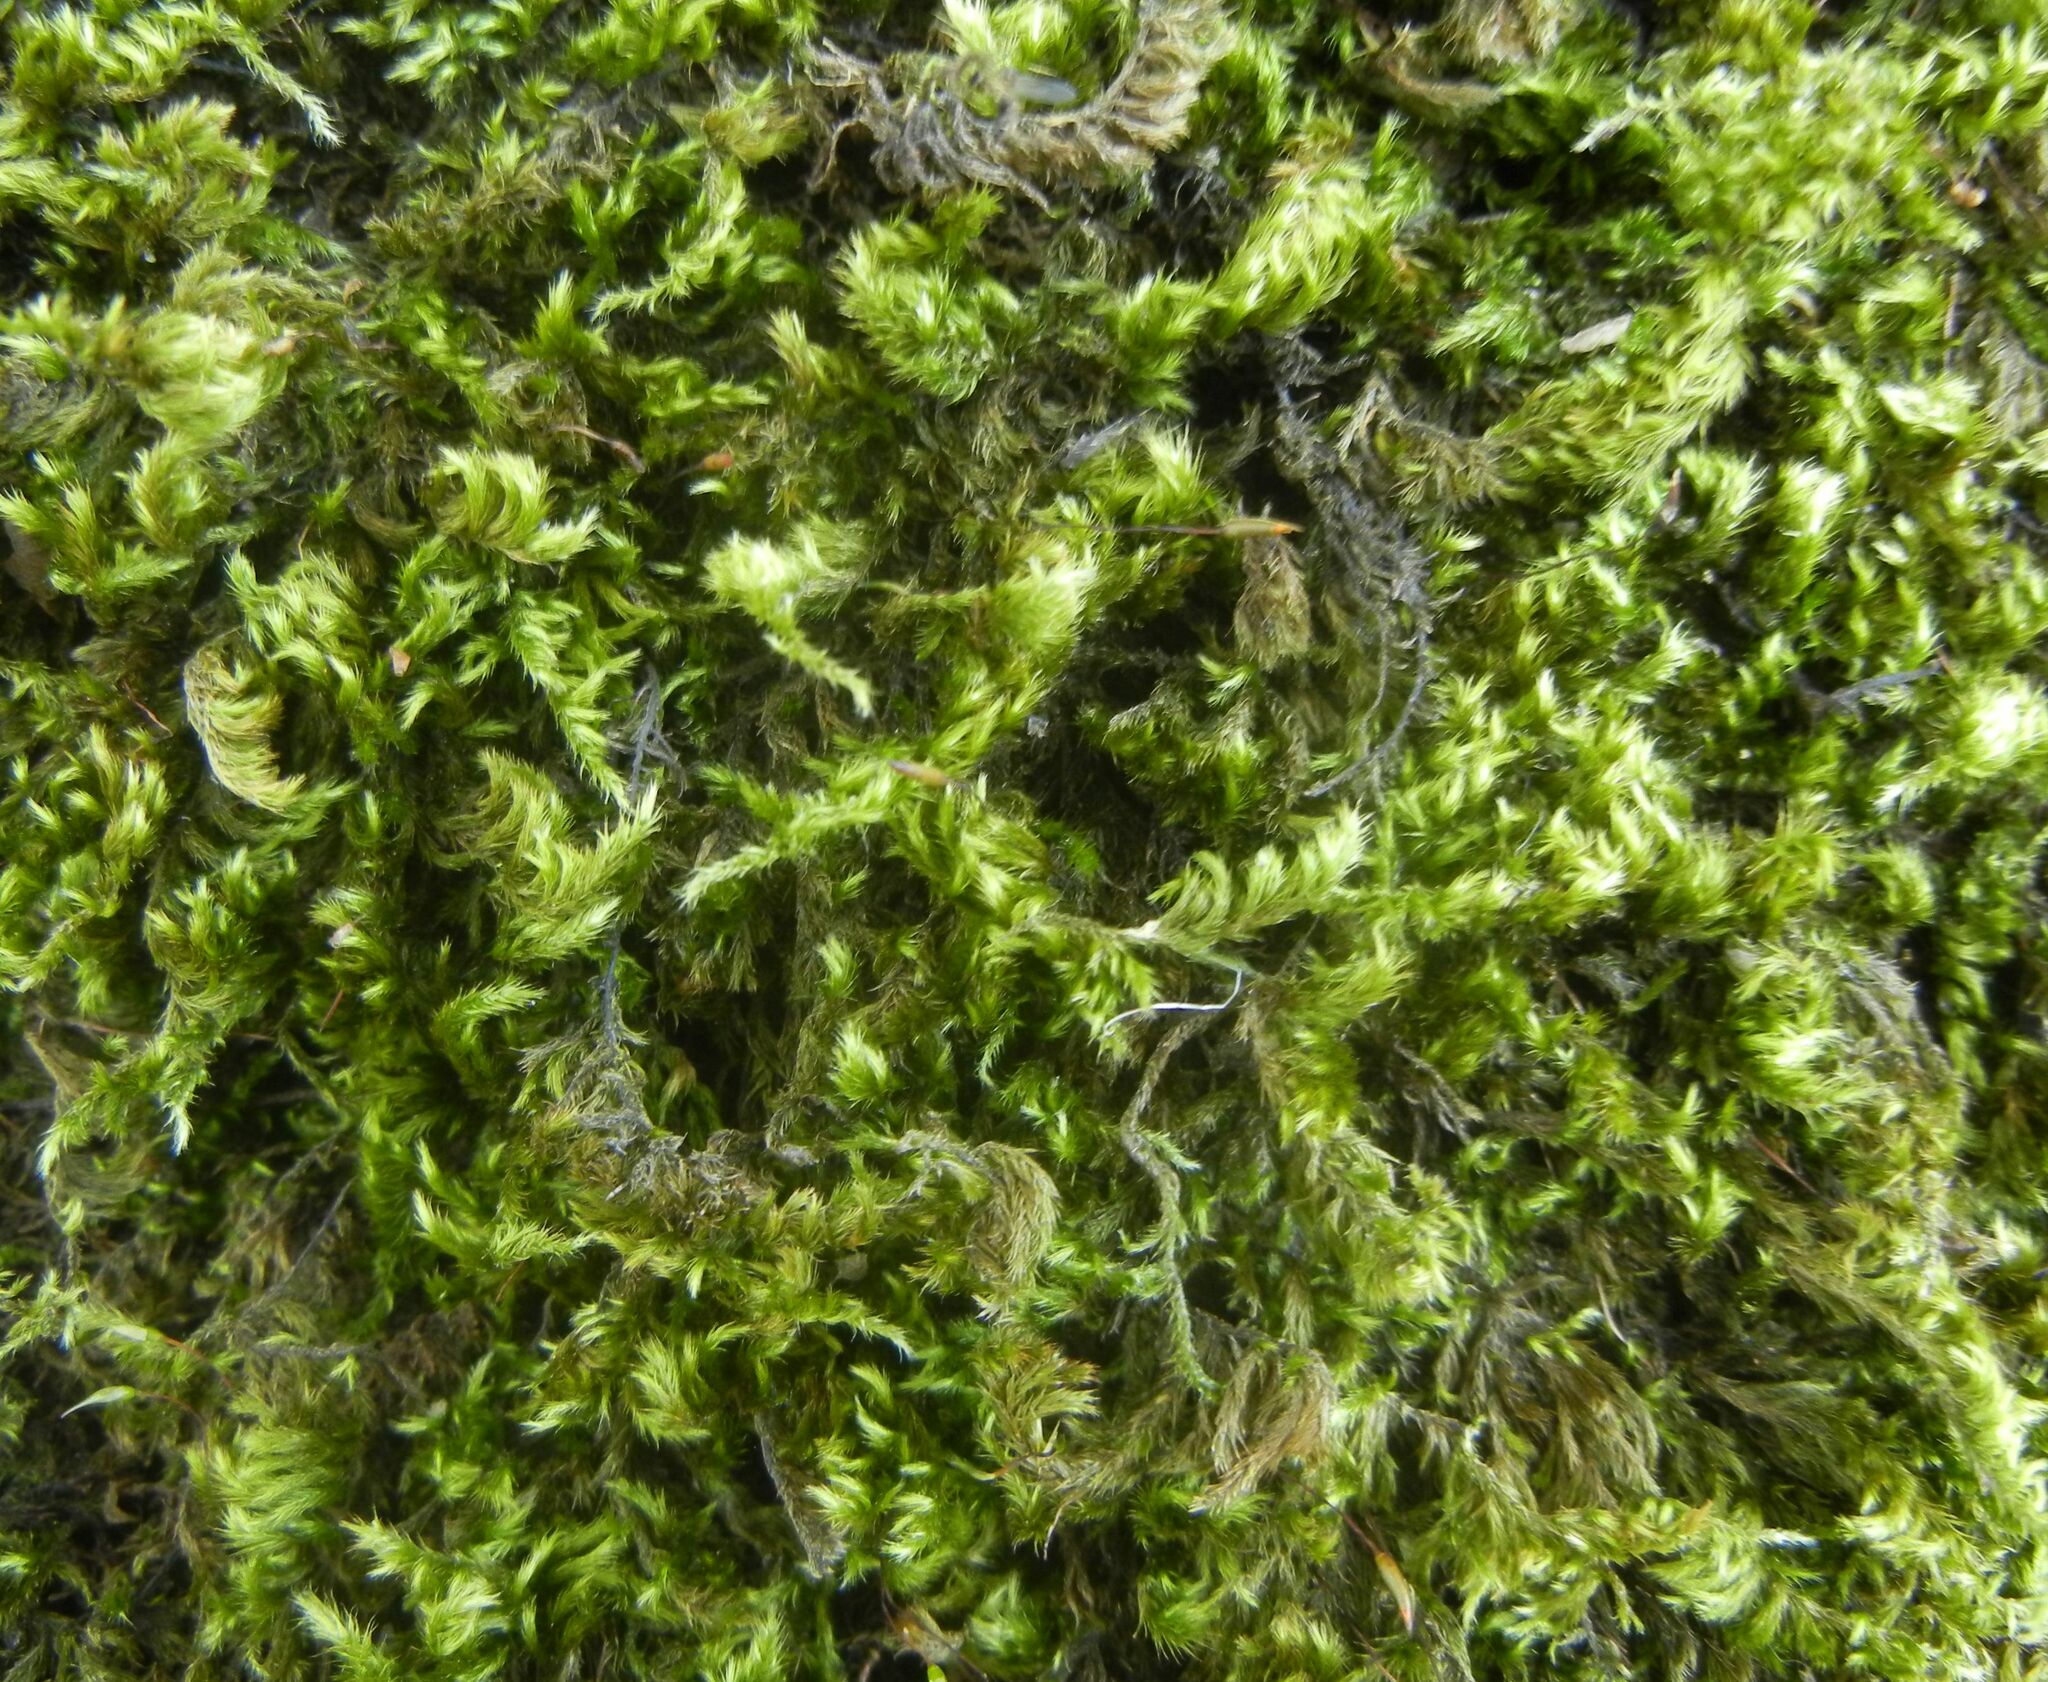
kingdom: Plantae
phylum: Bryophyta
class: Bryopsida
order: Hypnales
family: Brachytheciaceae
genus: Homalothecium
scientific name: Homalothecium sericeum
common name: Silky wall feather-moss
